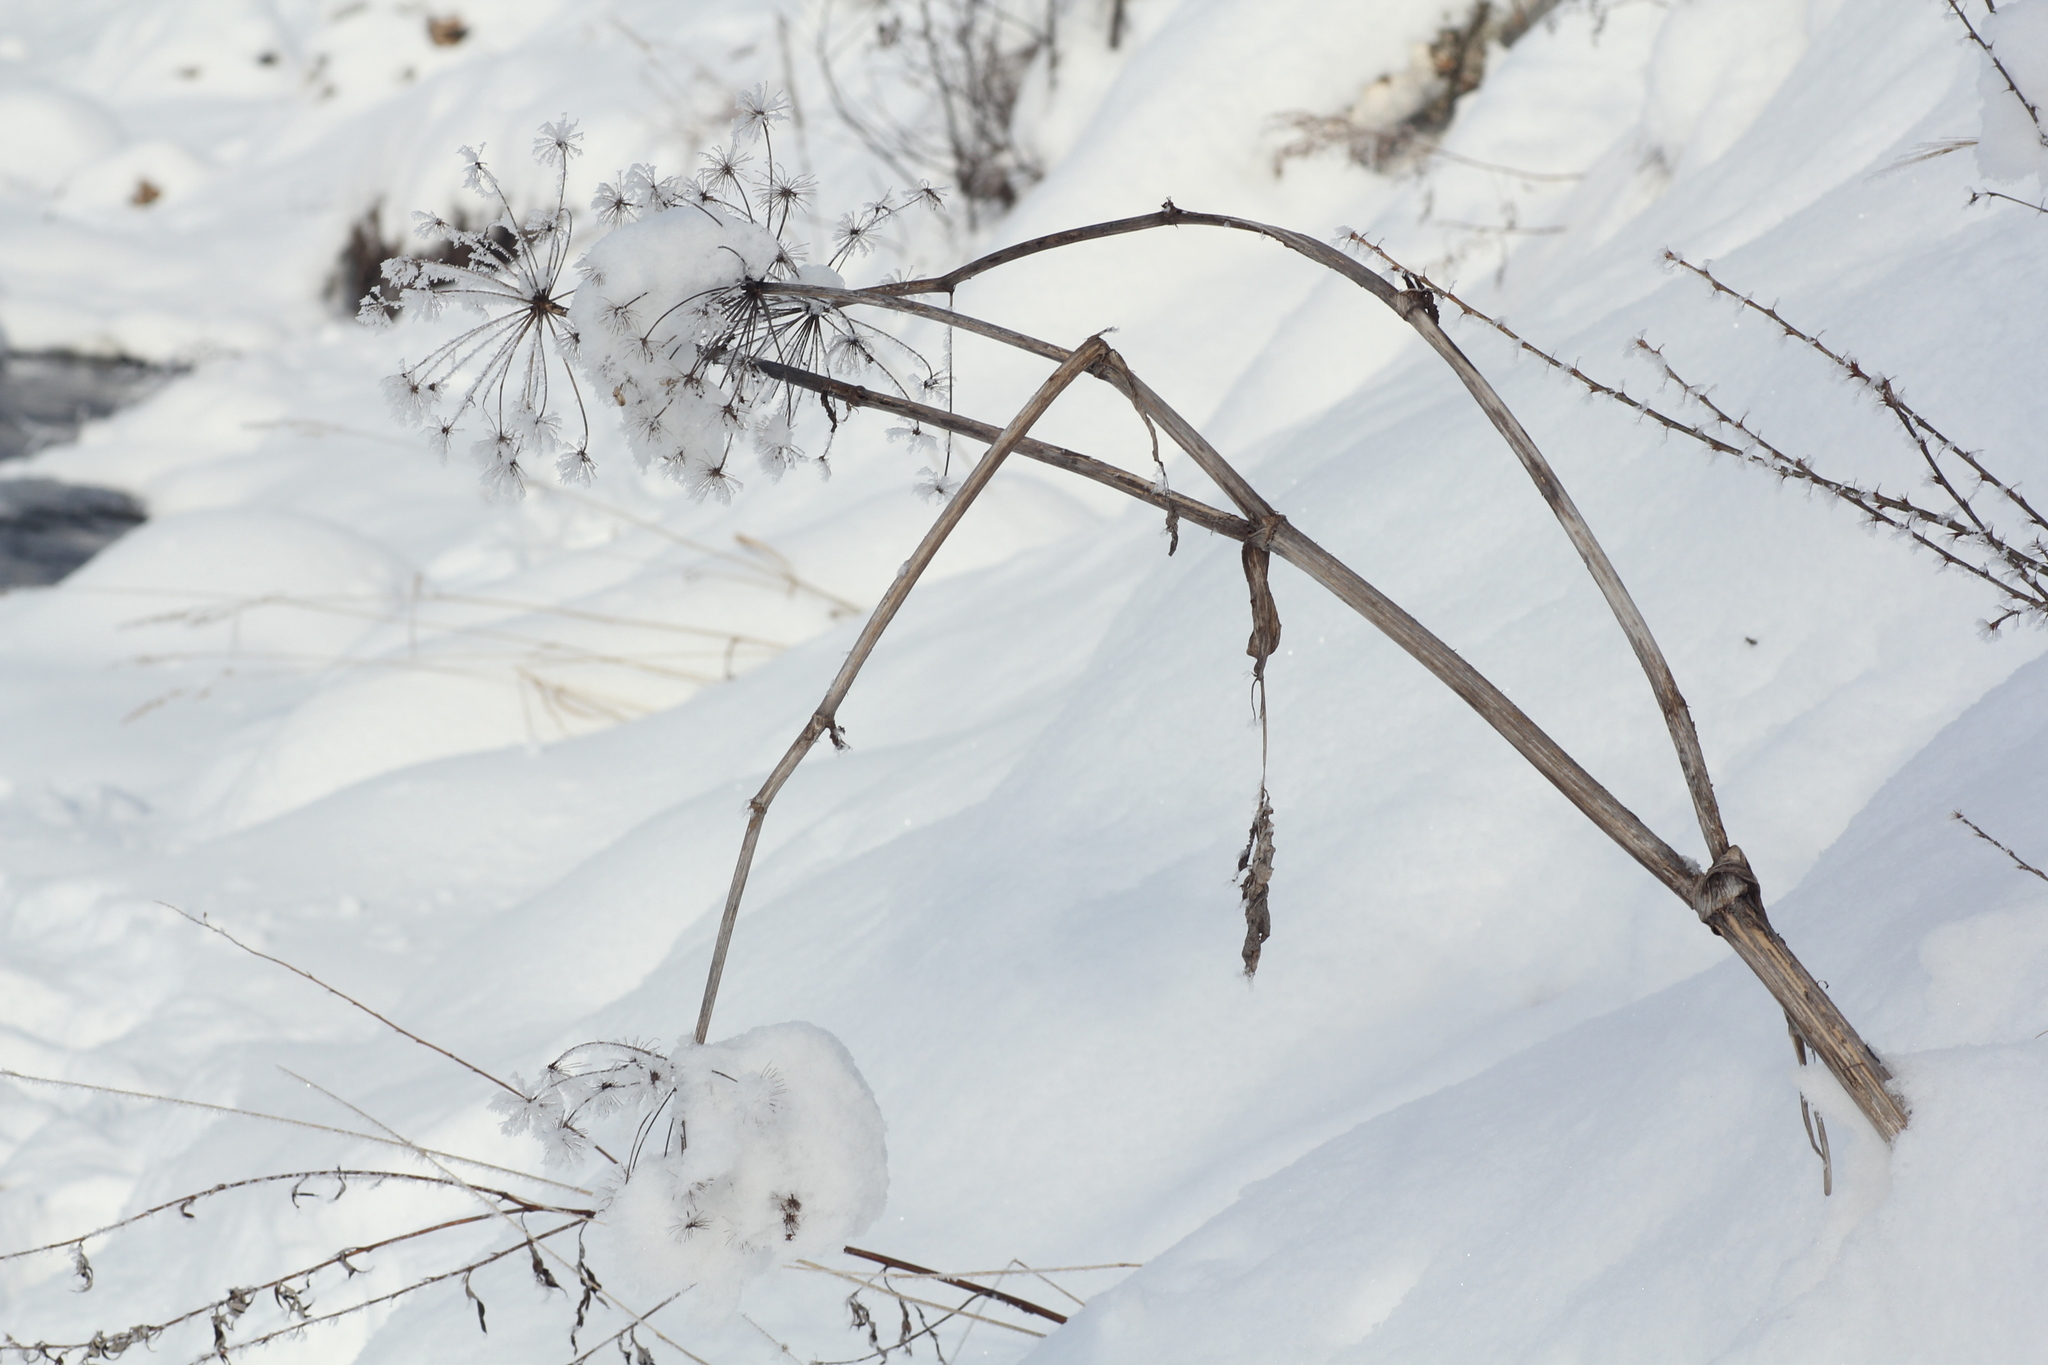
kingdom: Plantae
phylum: Tracheophyta
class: Magnoliopsida
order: Apiales
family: Apiaceae
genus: Angelica
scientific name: Angelica decurrens
